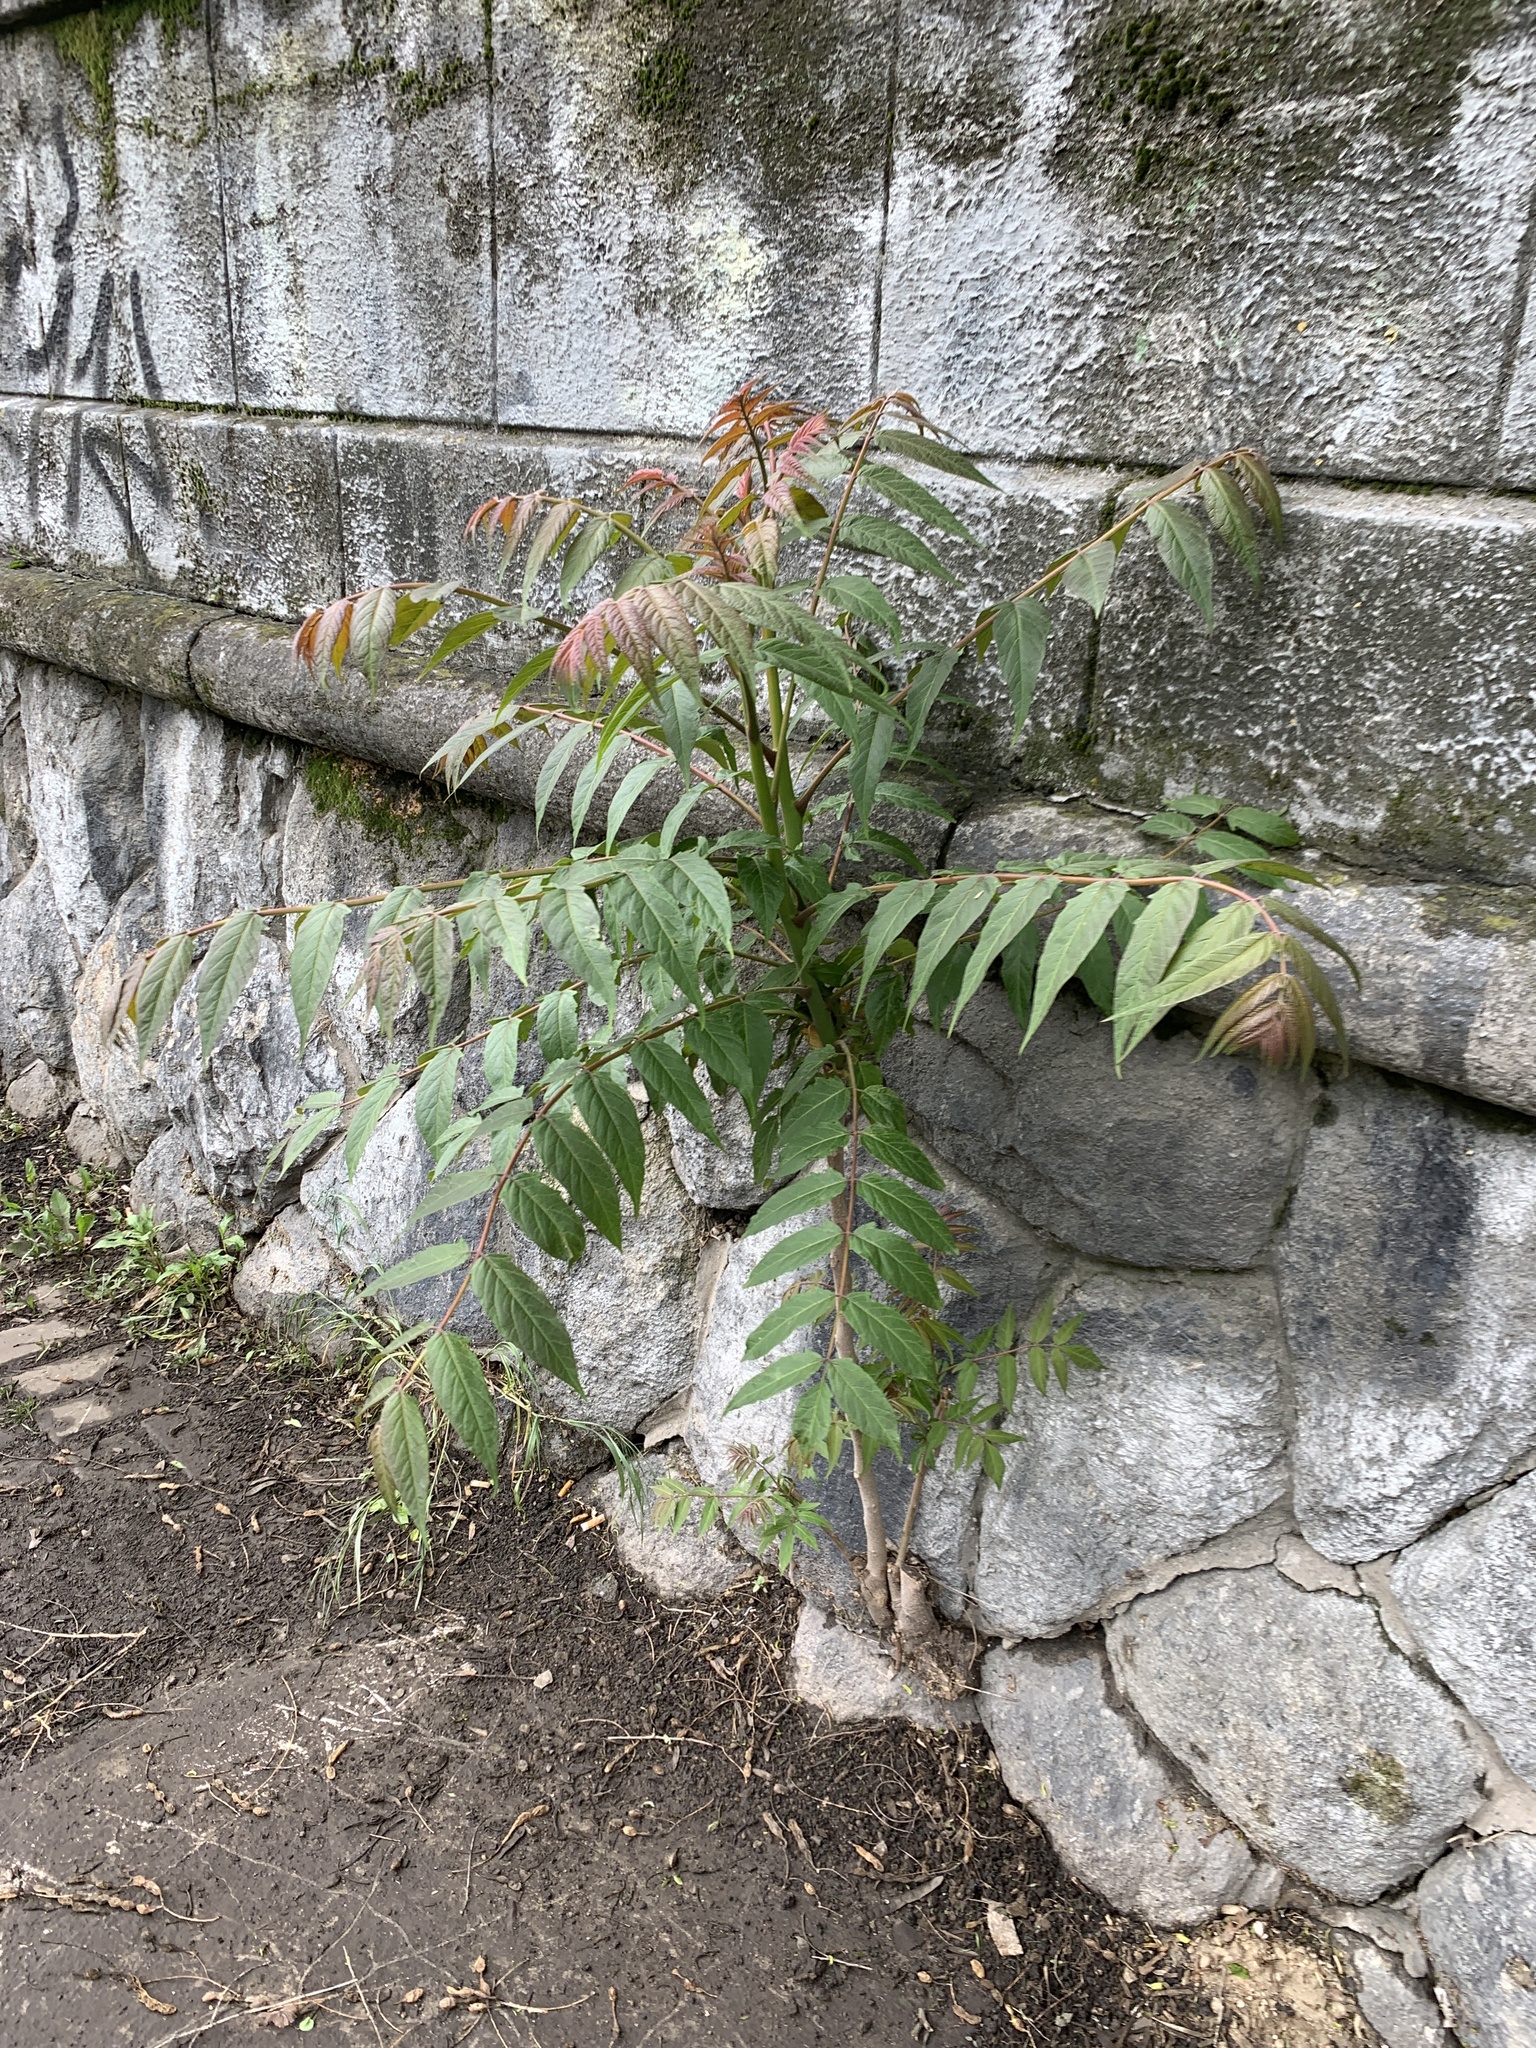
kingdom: Plantae
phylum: Tracheophyta
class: Magnoliopsida
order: Sapindales
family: Simaroubaceae
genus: Ailanthus
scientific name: Ailanthus altissima
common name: Tree-of-heaven
